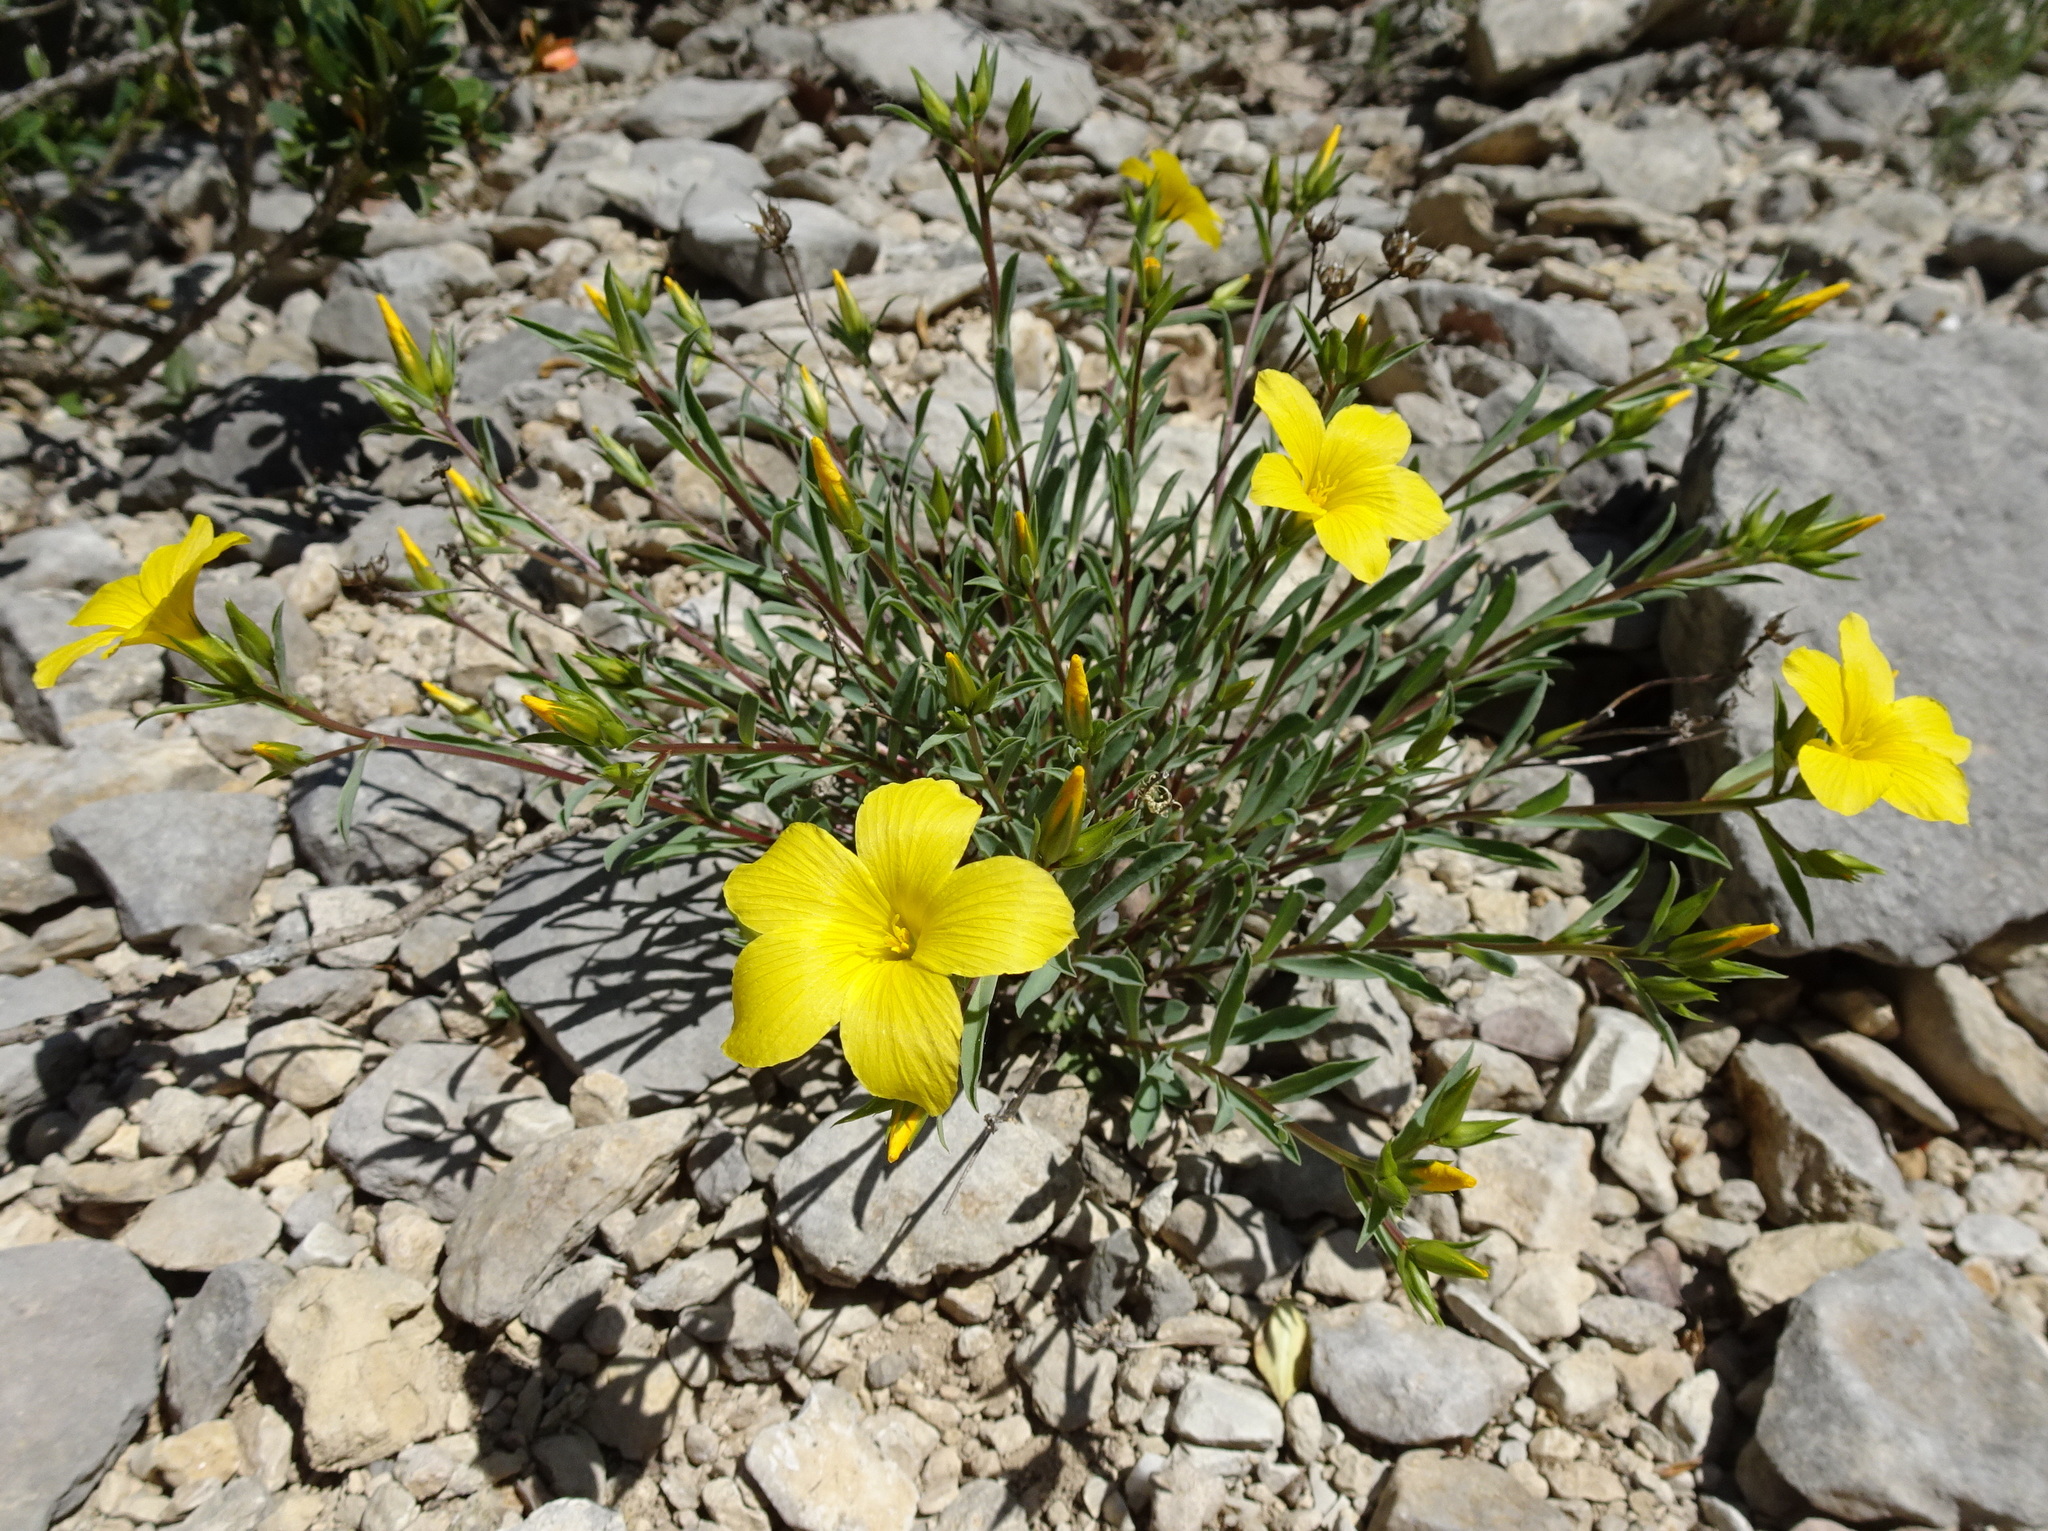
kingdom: Plantae
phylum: Tracheophyta
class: Magnoliopsida
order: Malpighiales
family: Linaceae
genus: Linum
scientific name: Linum campanulatum
